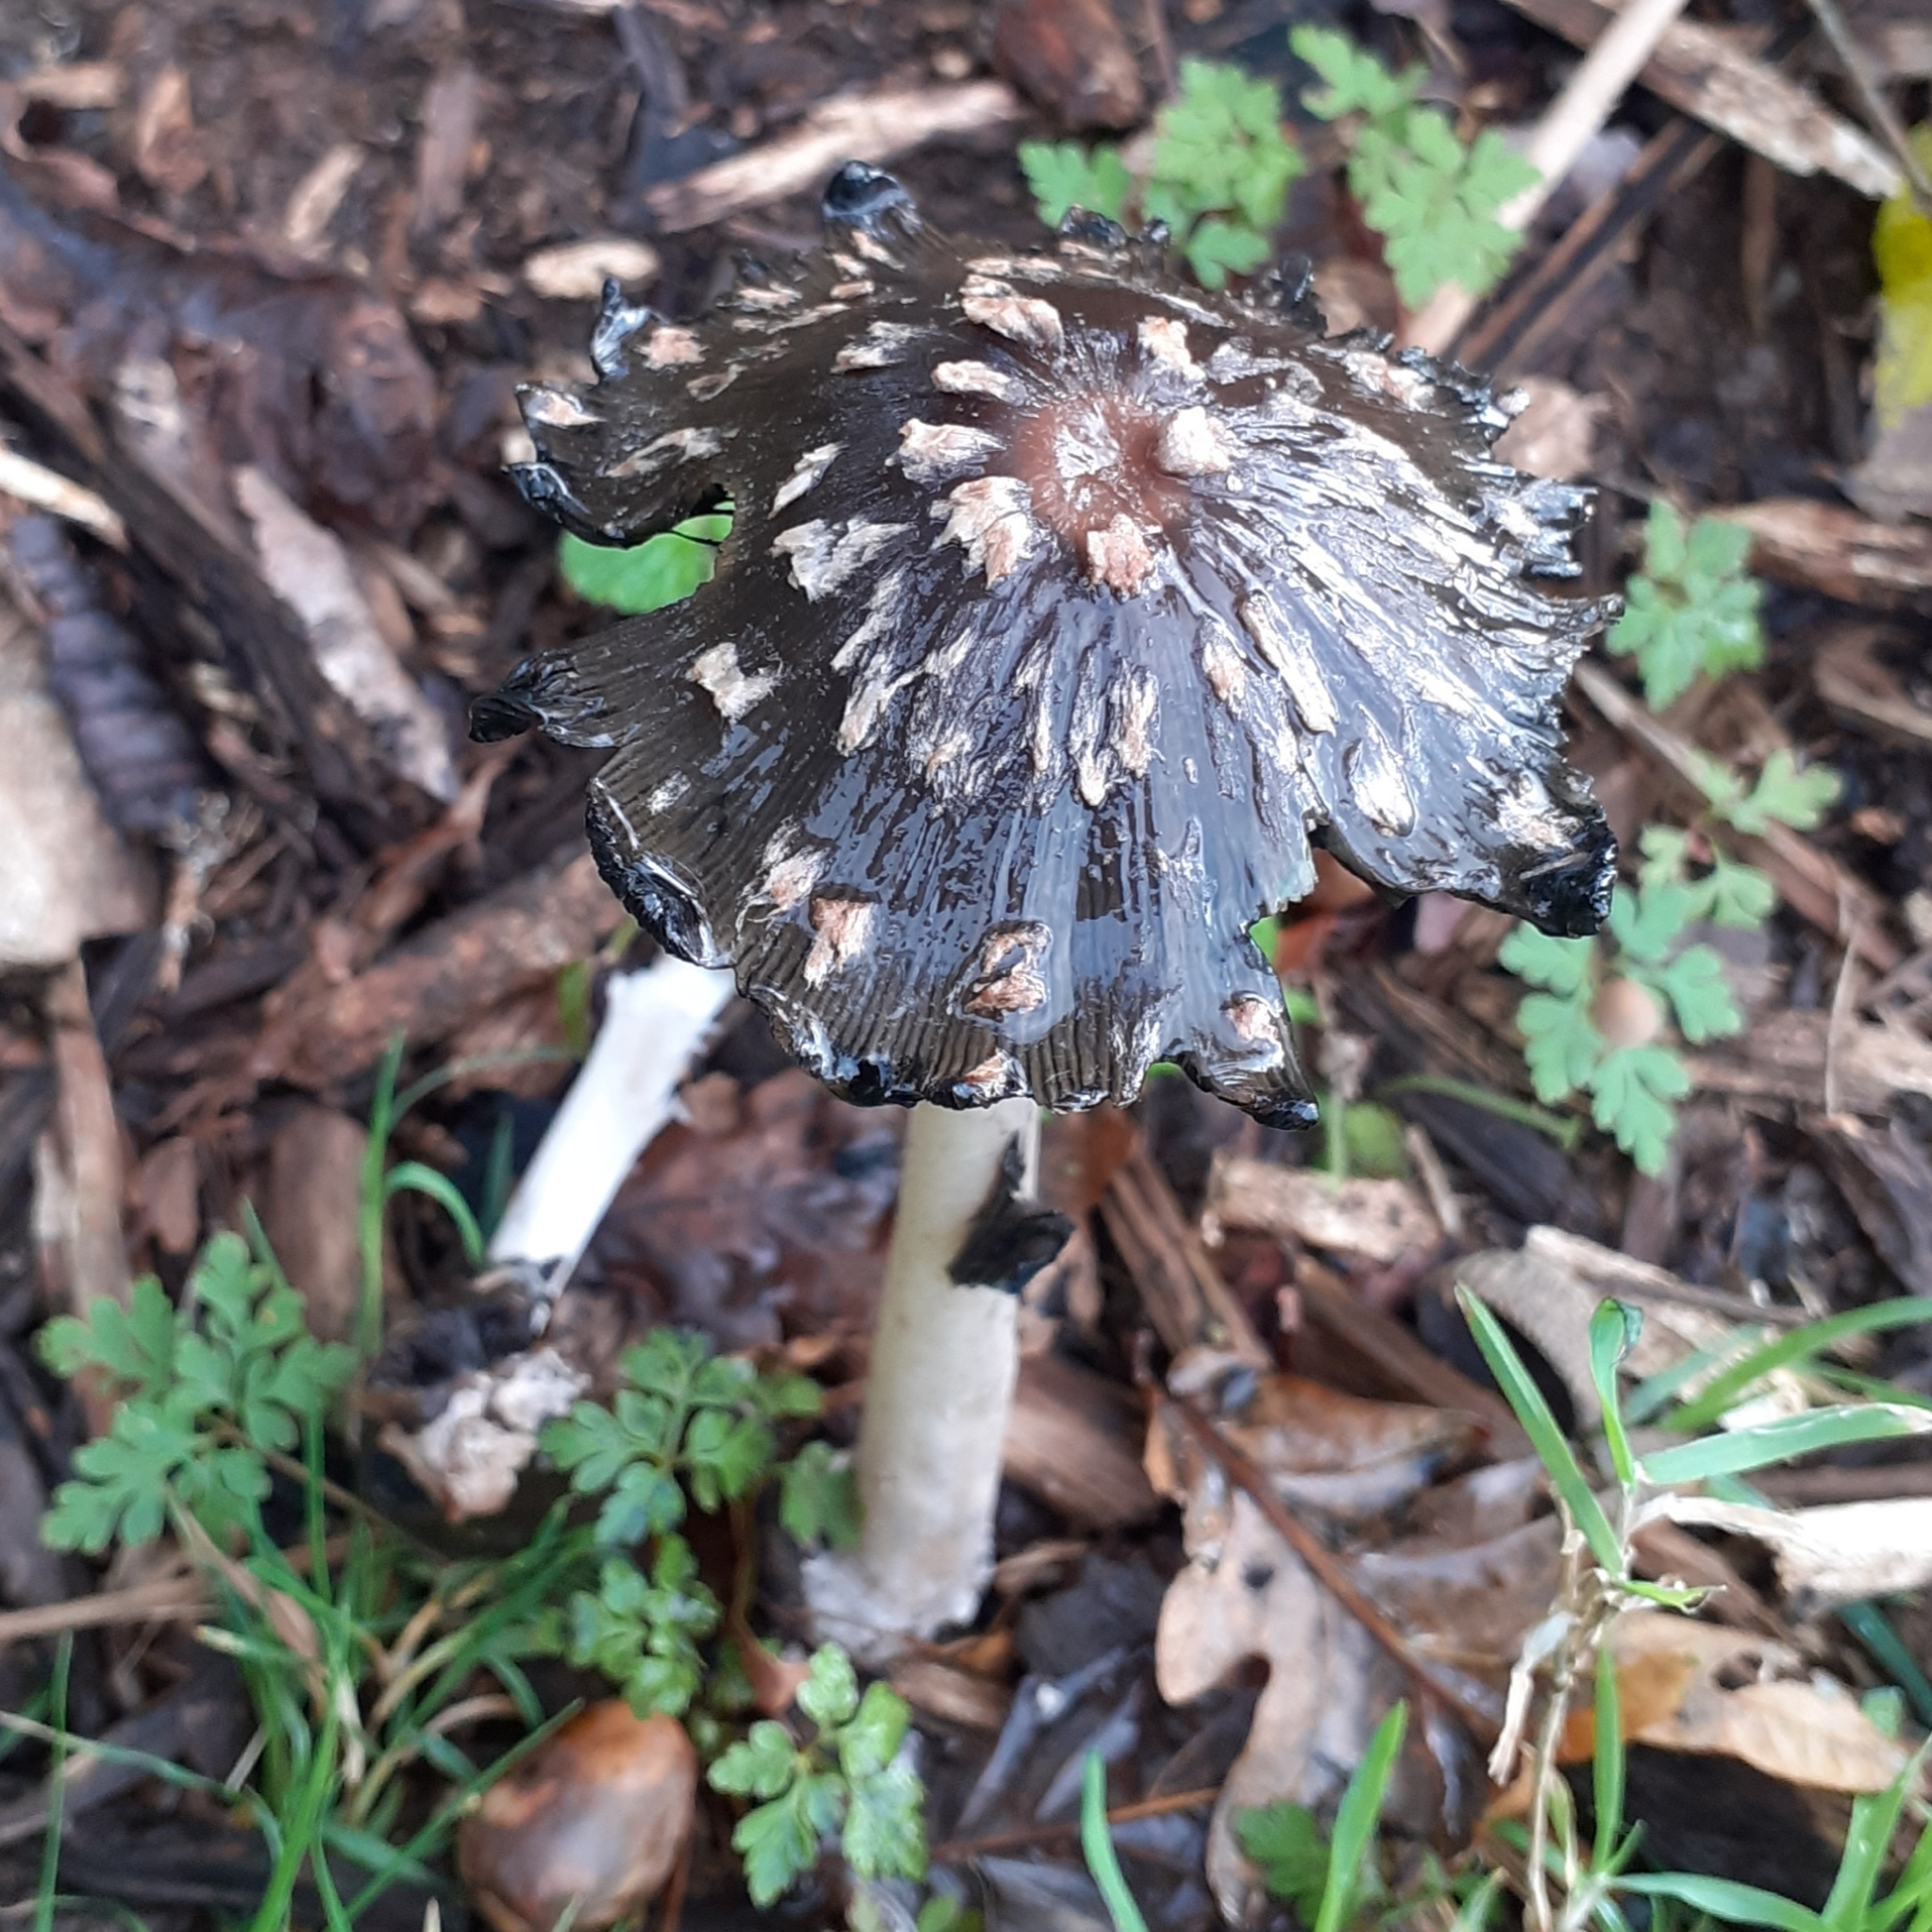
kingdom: Fungi
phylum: Basidiomycota
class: Agaricomycetes
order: Agaricales
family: Psathyrellaceae
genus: Coprinopsis
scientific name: Coprinopsis picacea
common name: Magpie inkcap
